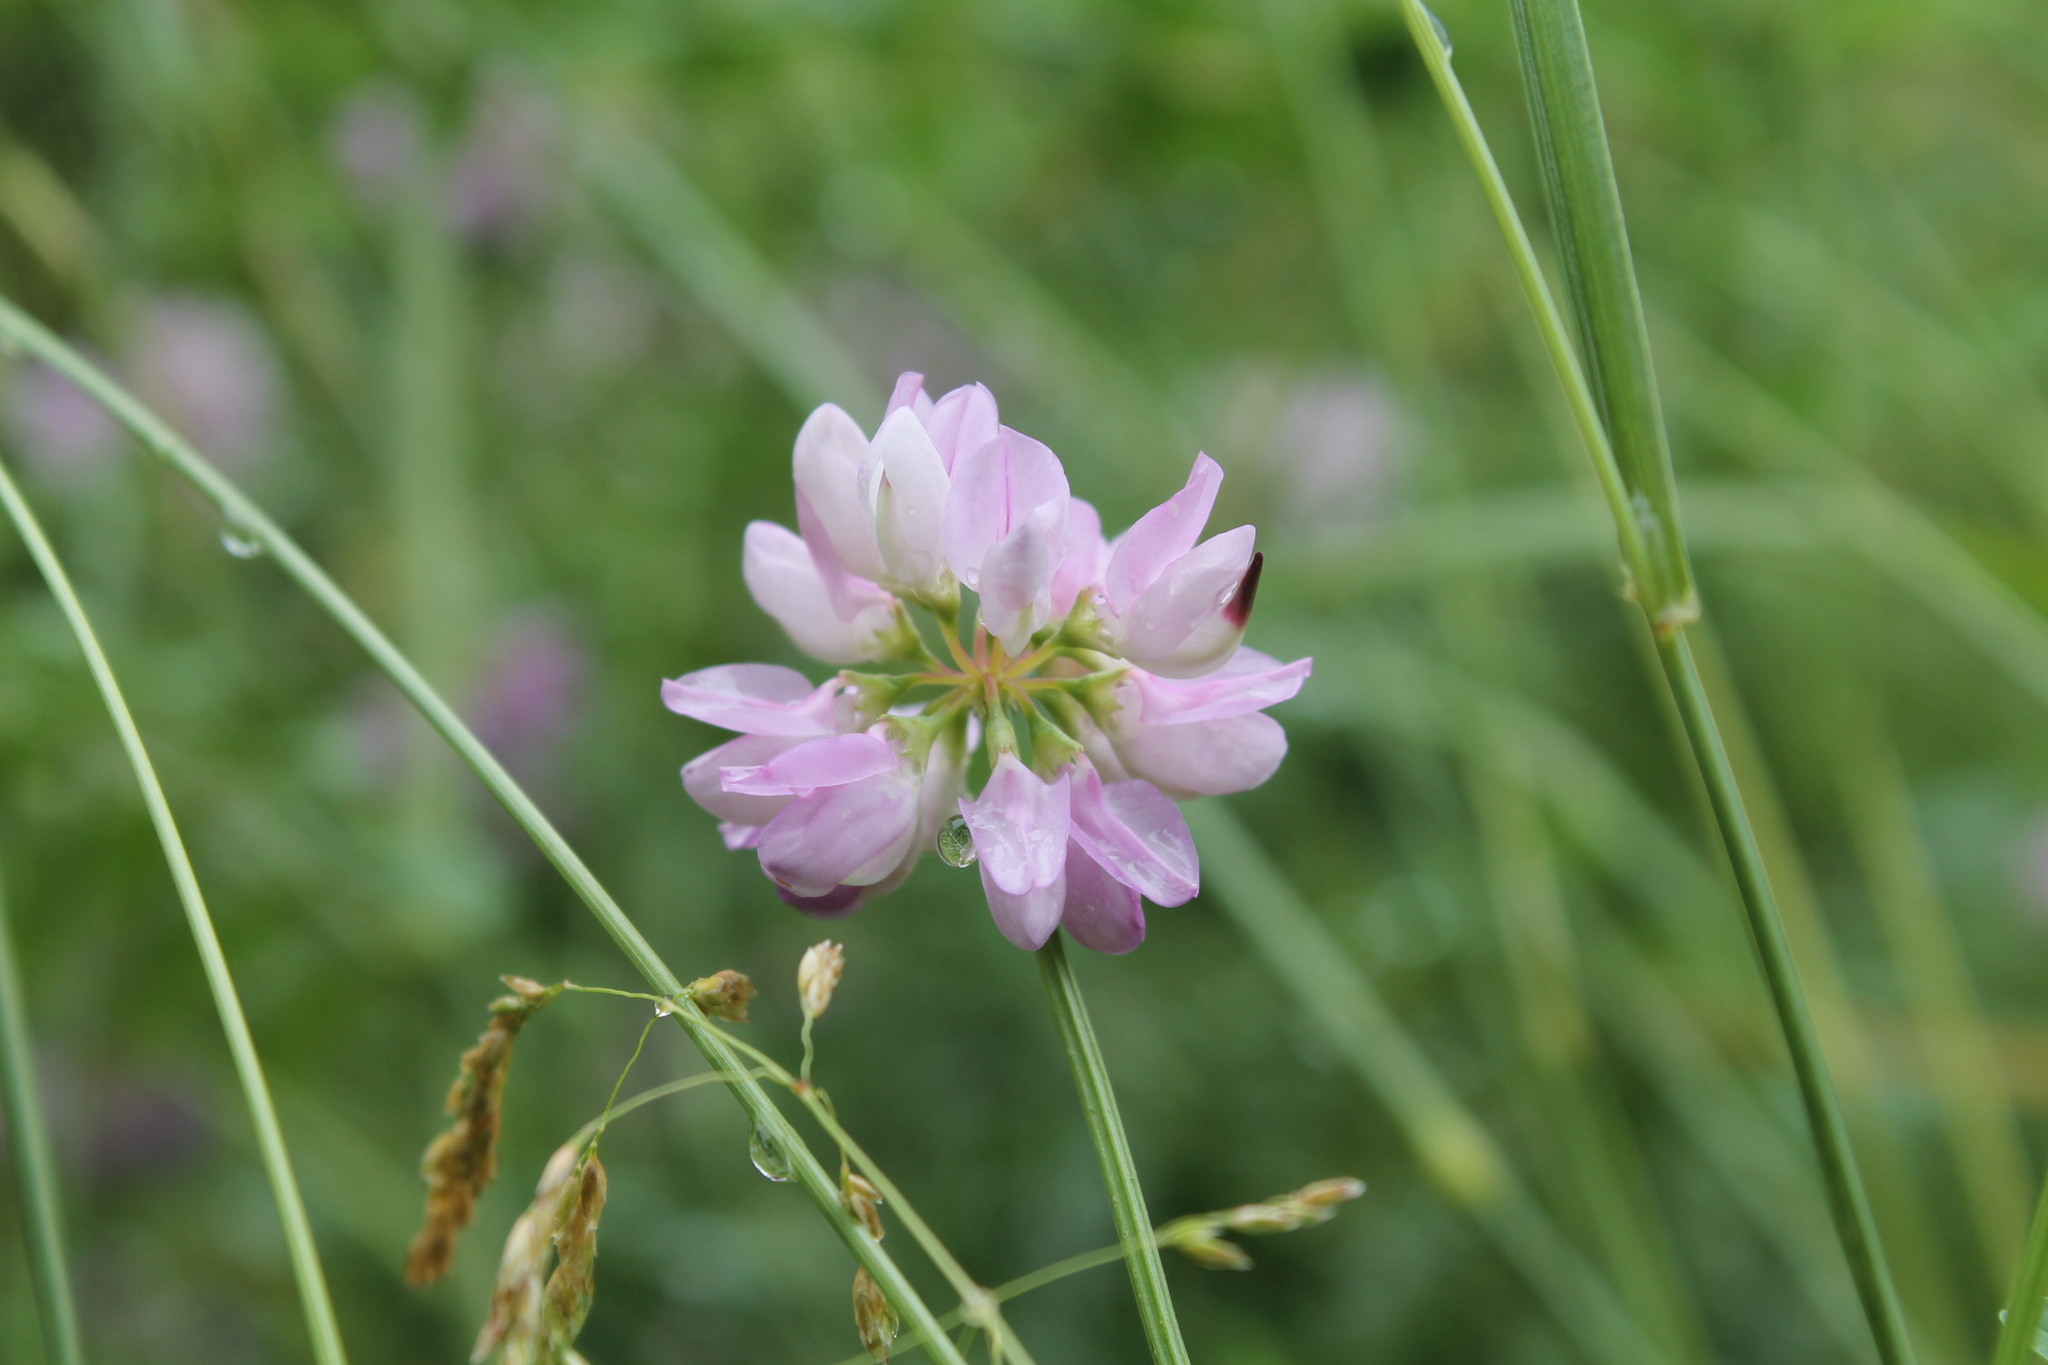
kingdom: Plantae
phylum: Tracheophyta
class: Magnoliopsida
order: Fabales
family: Fabaceae
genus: Coronilla
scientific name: Coronilla varia
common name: Crownvetch
